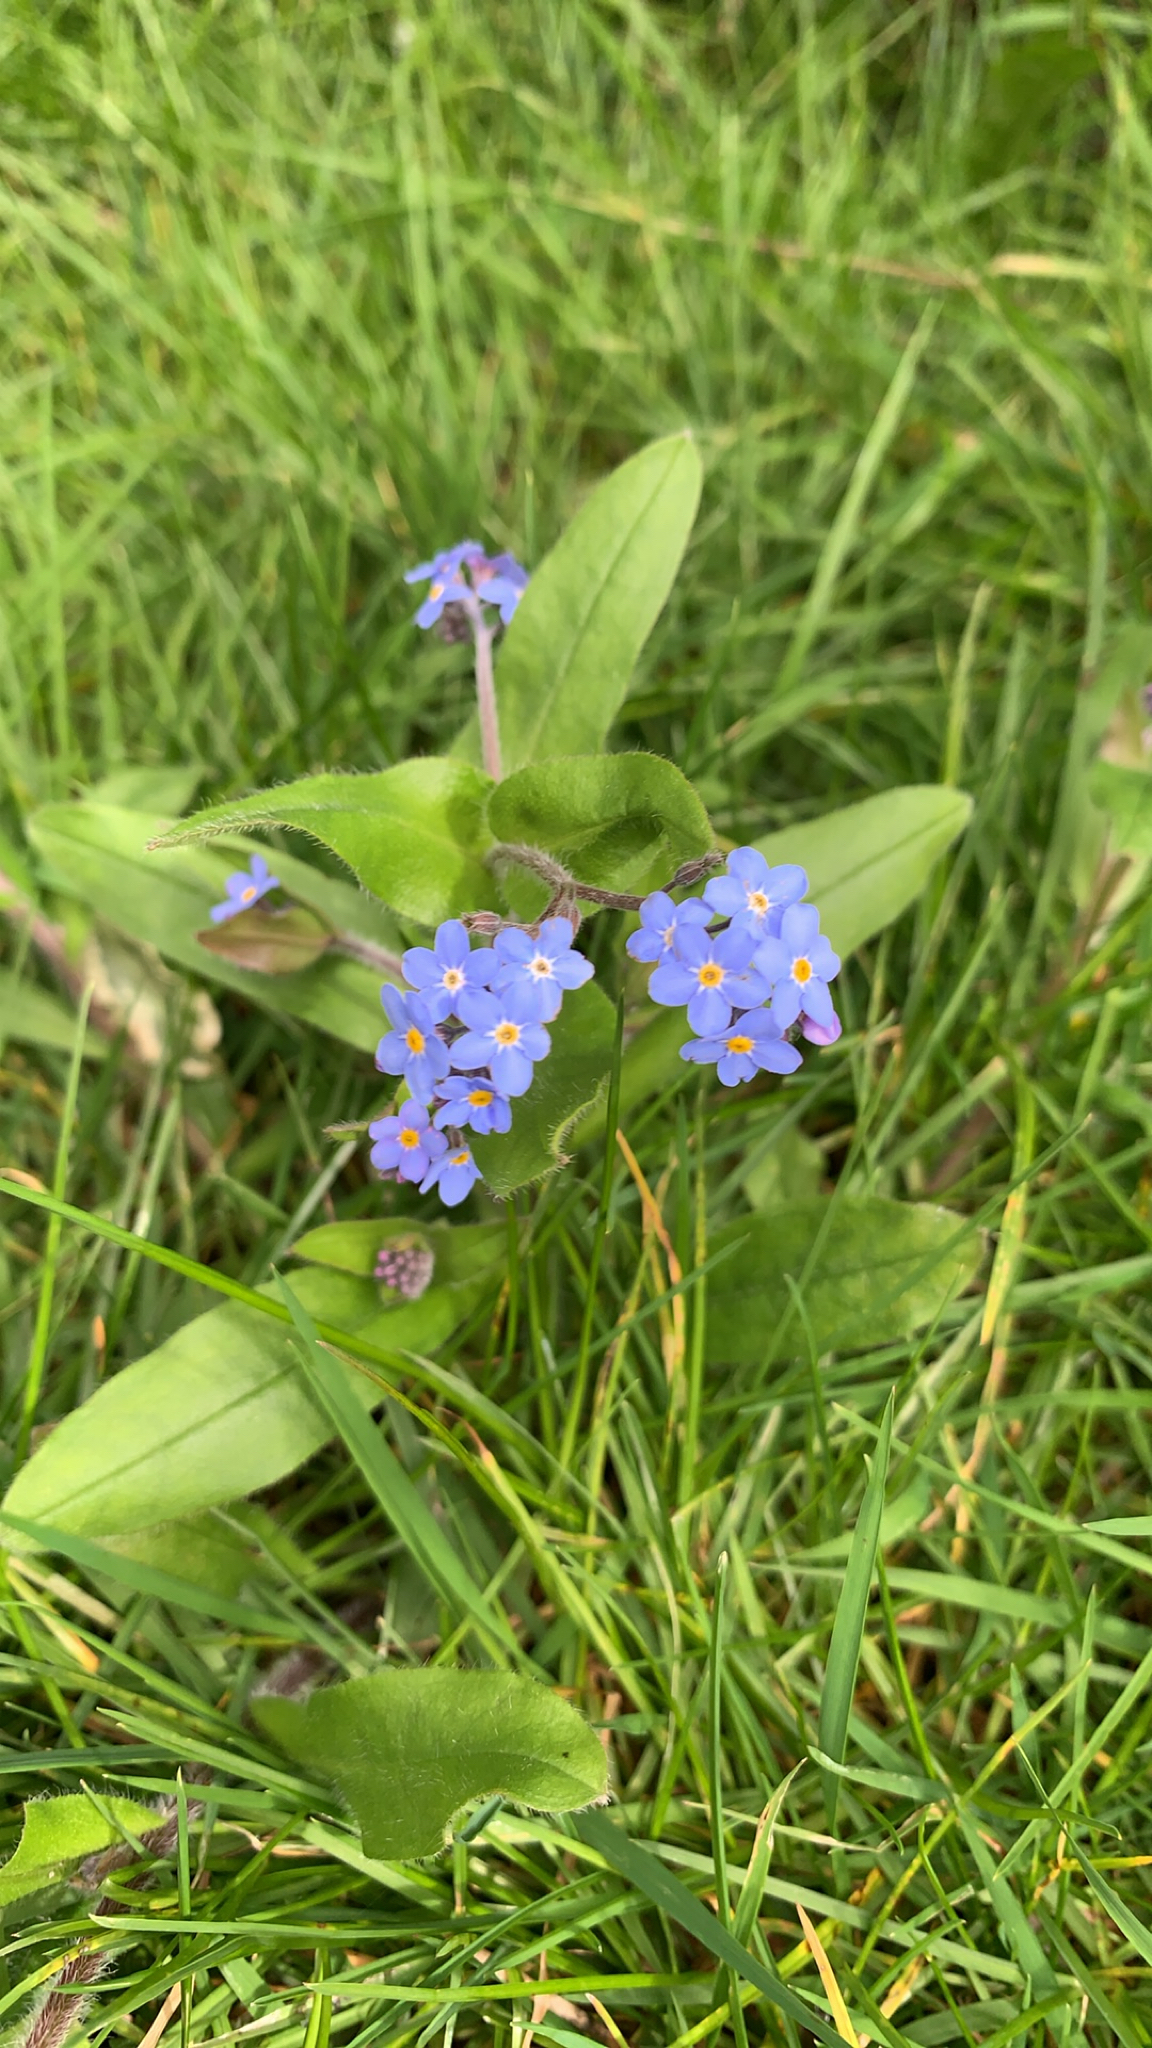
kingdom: Plantae
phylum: Tracheophyta
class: Magnoliopsida
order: Boraginales
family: Boraginaceae
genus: Myosotis
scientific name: Myosotis sylvatica
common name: Wood forget-me-not
